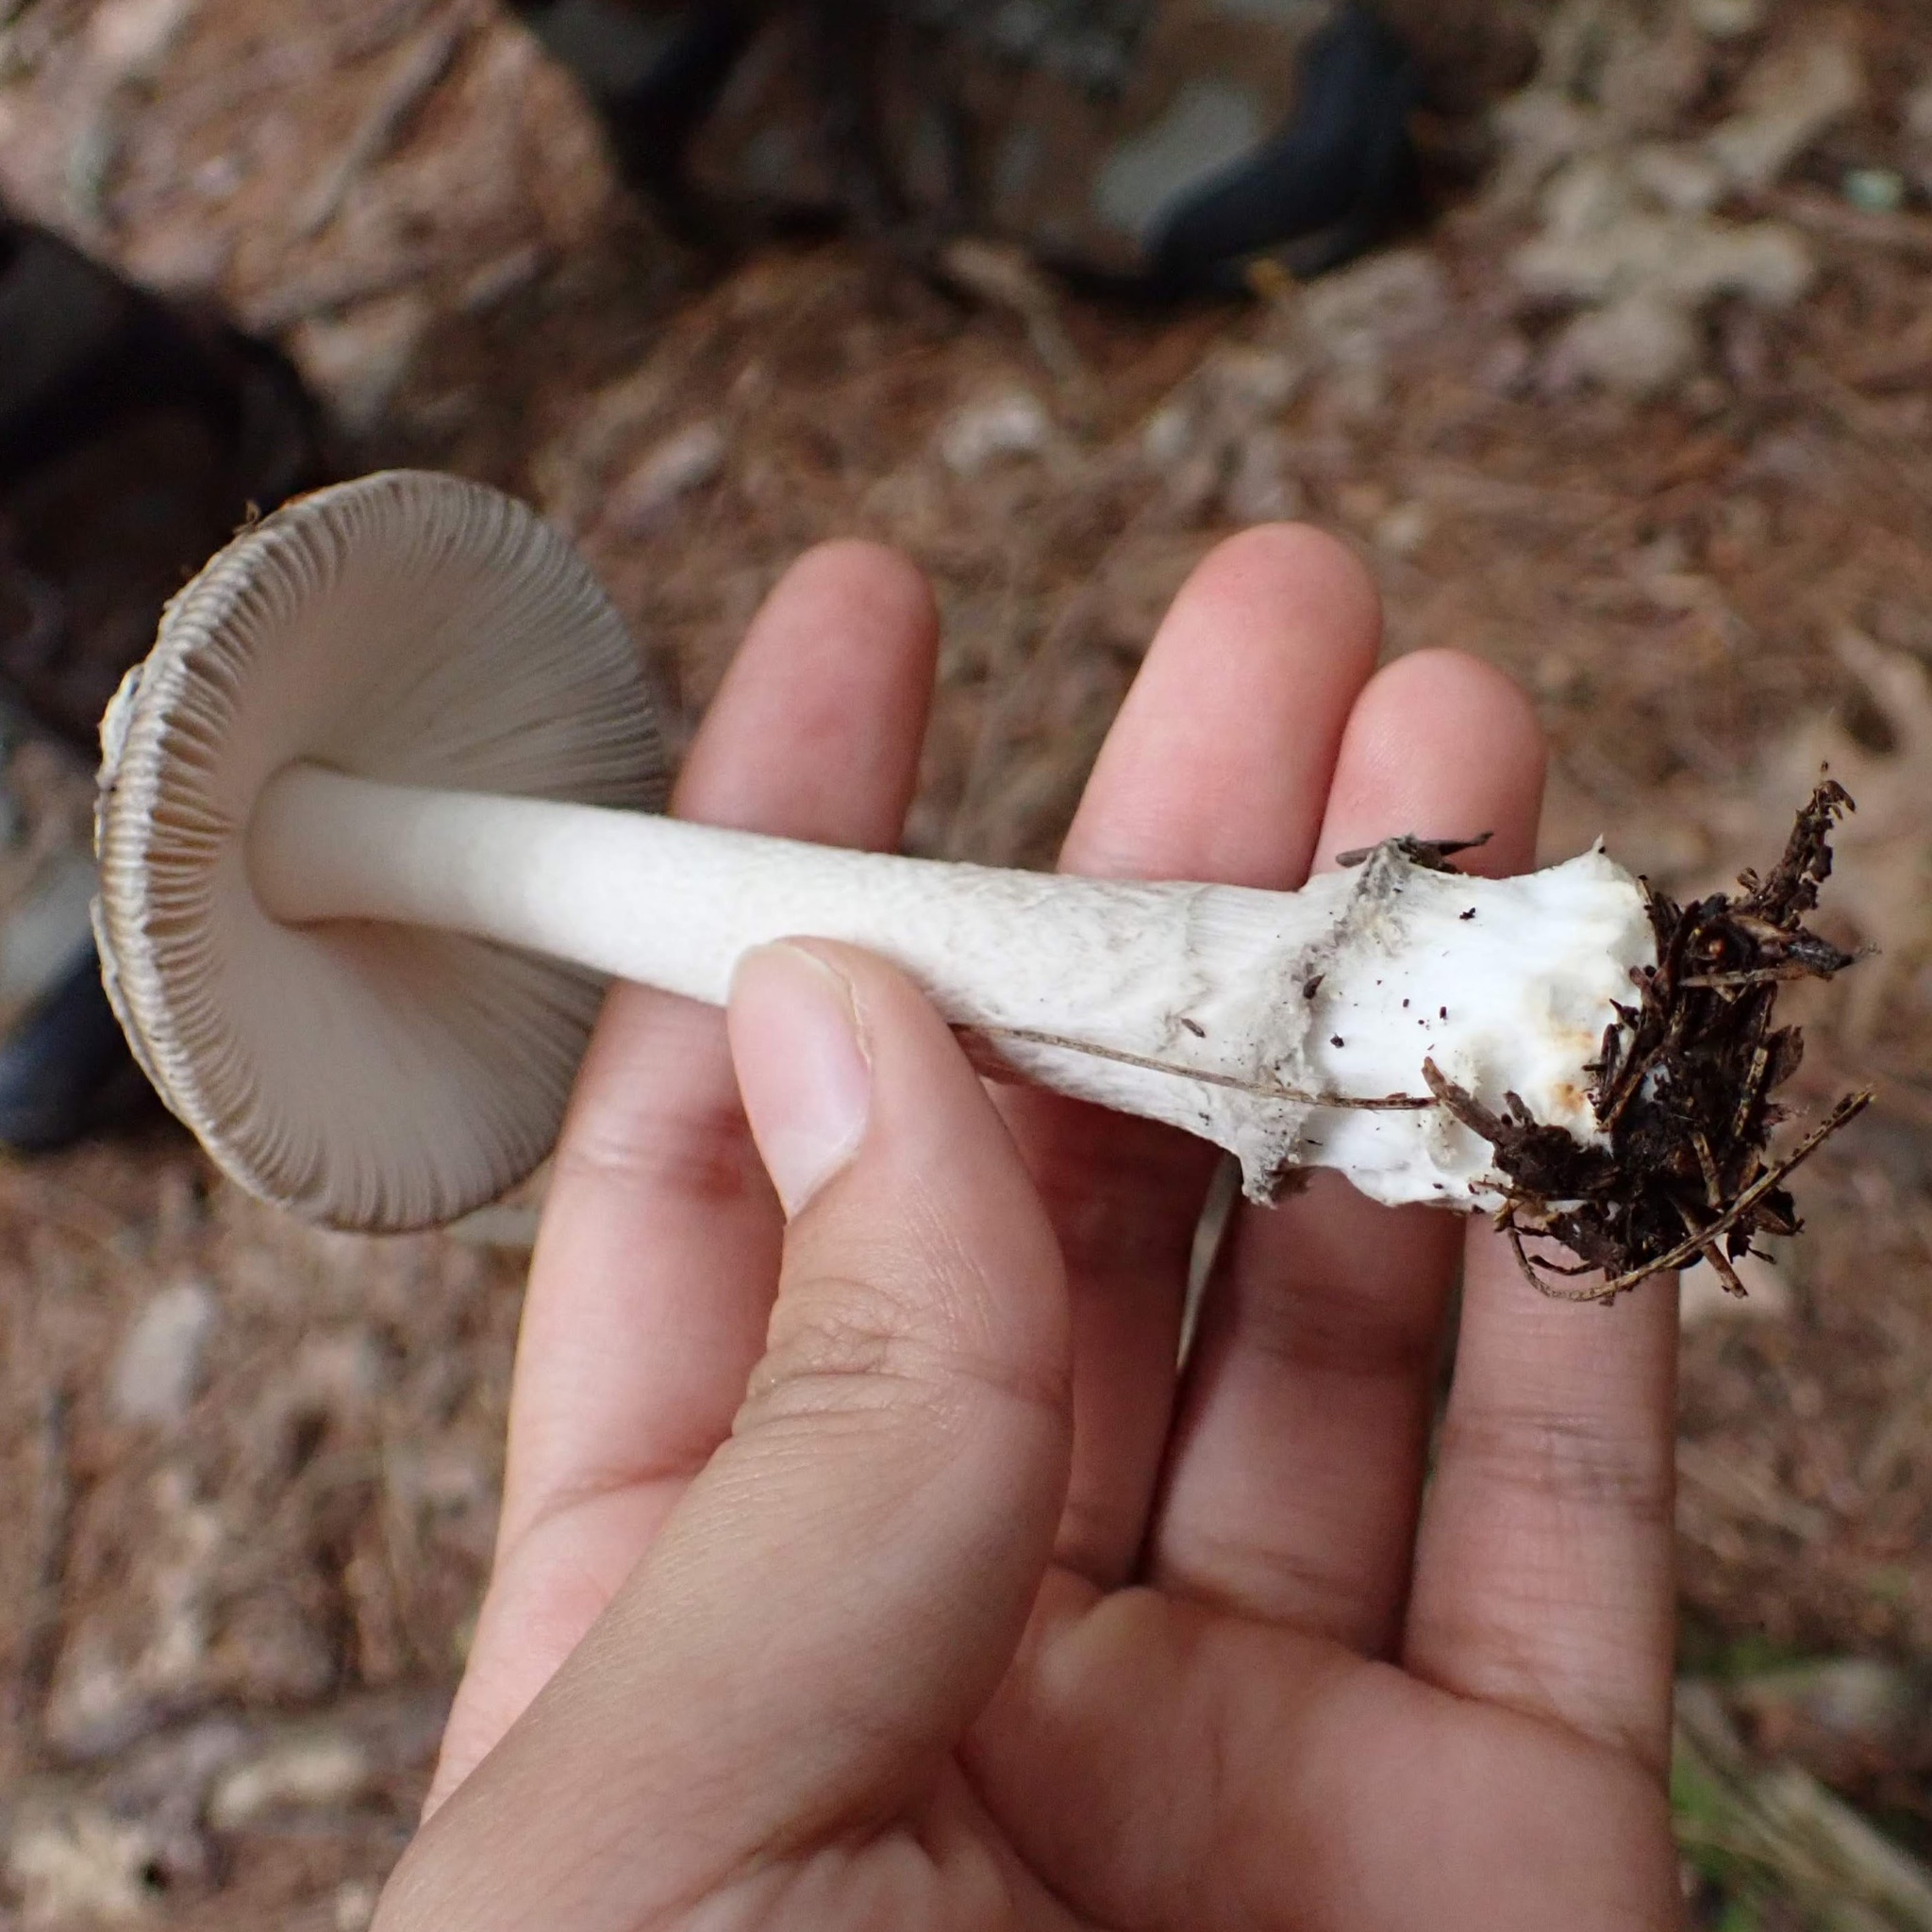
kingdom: Fungi
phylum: Basidiomycota
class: Agaricomycetes
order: Agaricales
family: Amanitaceae
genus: Amanita
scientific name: Amanita
